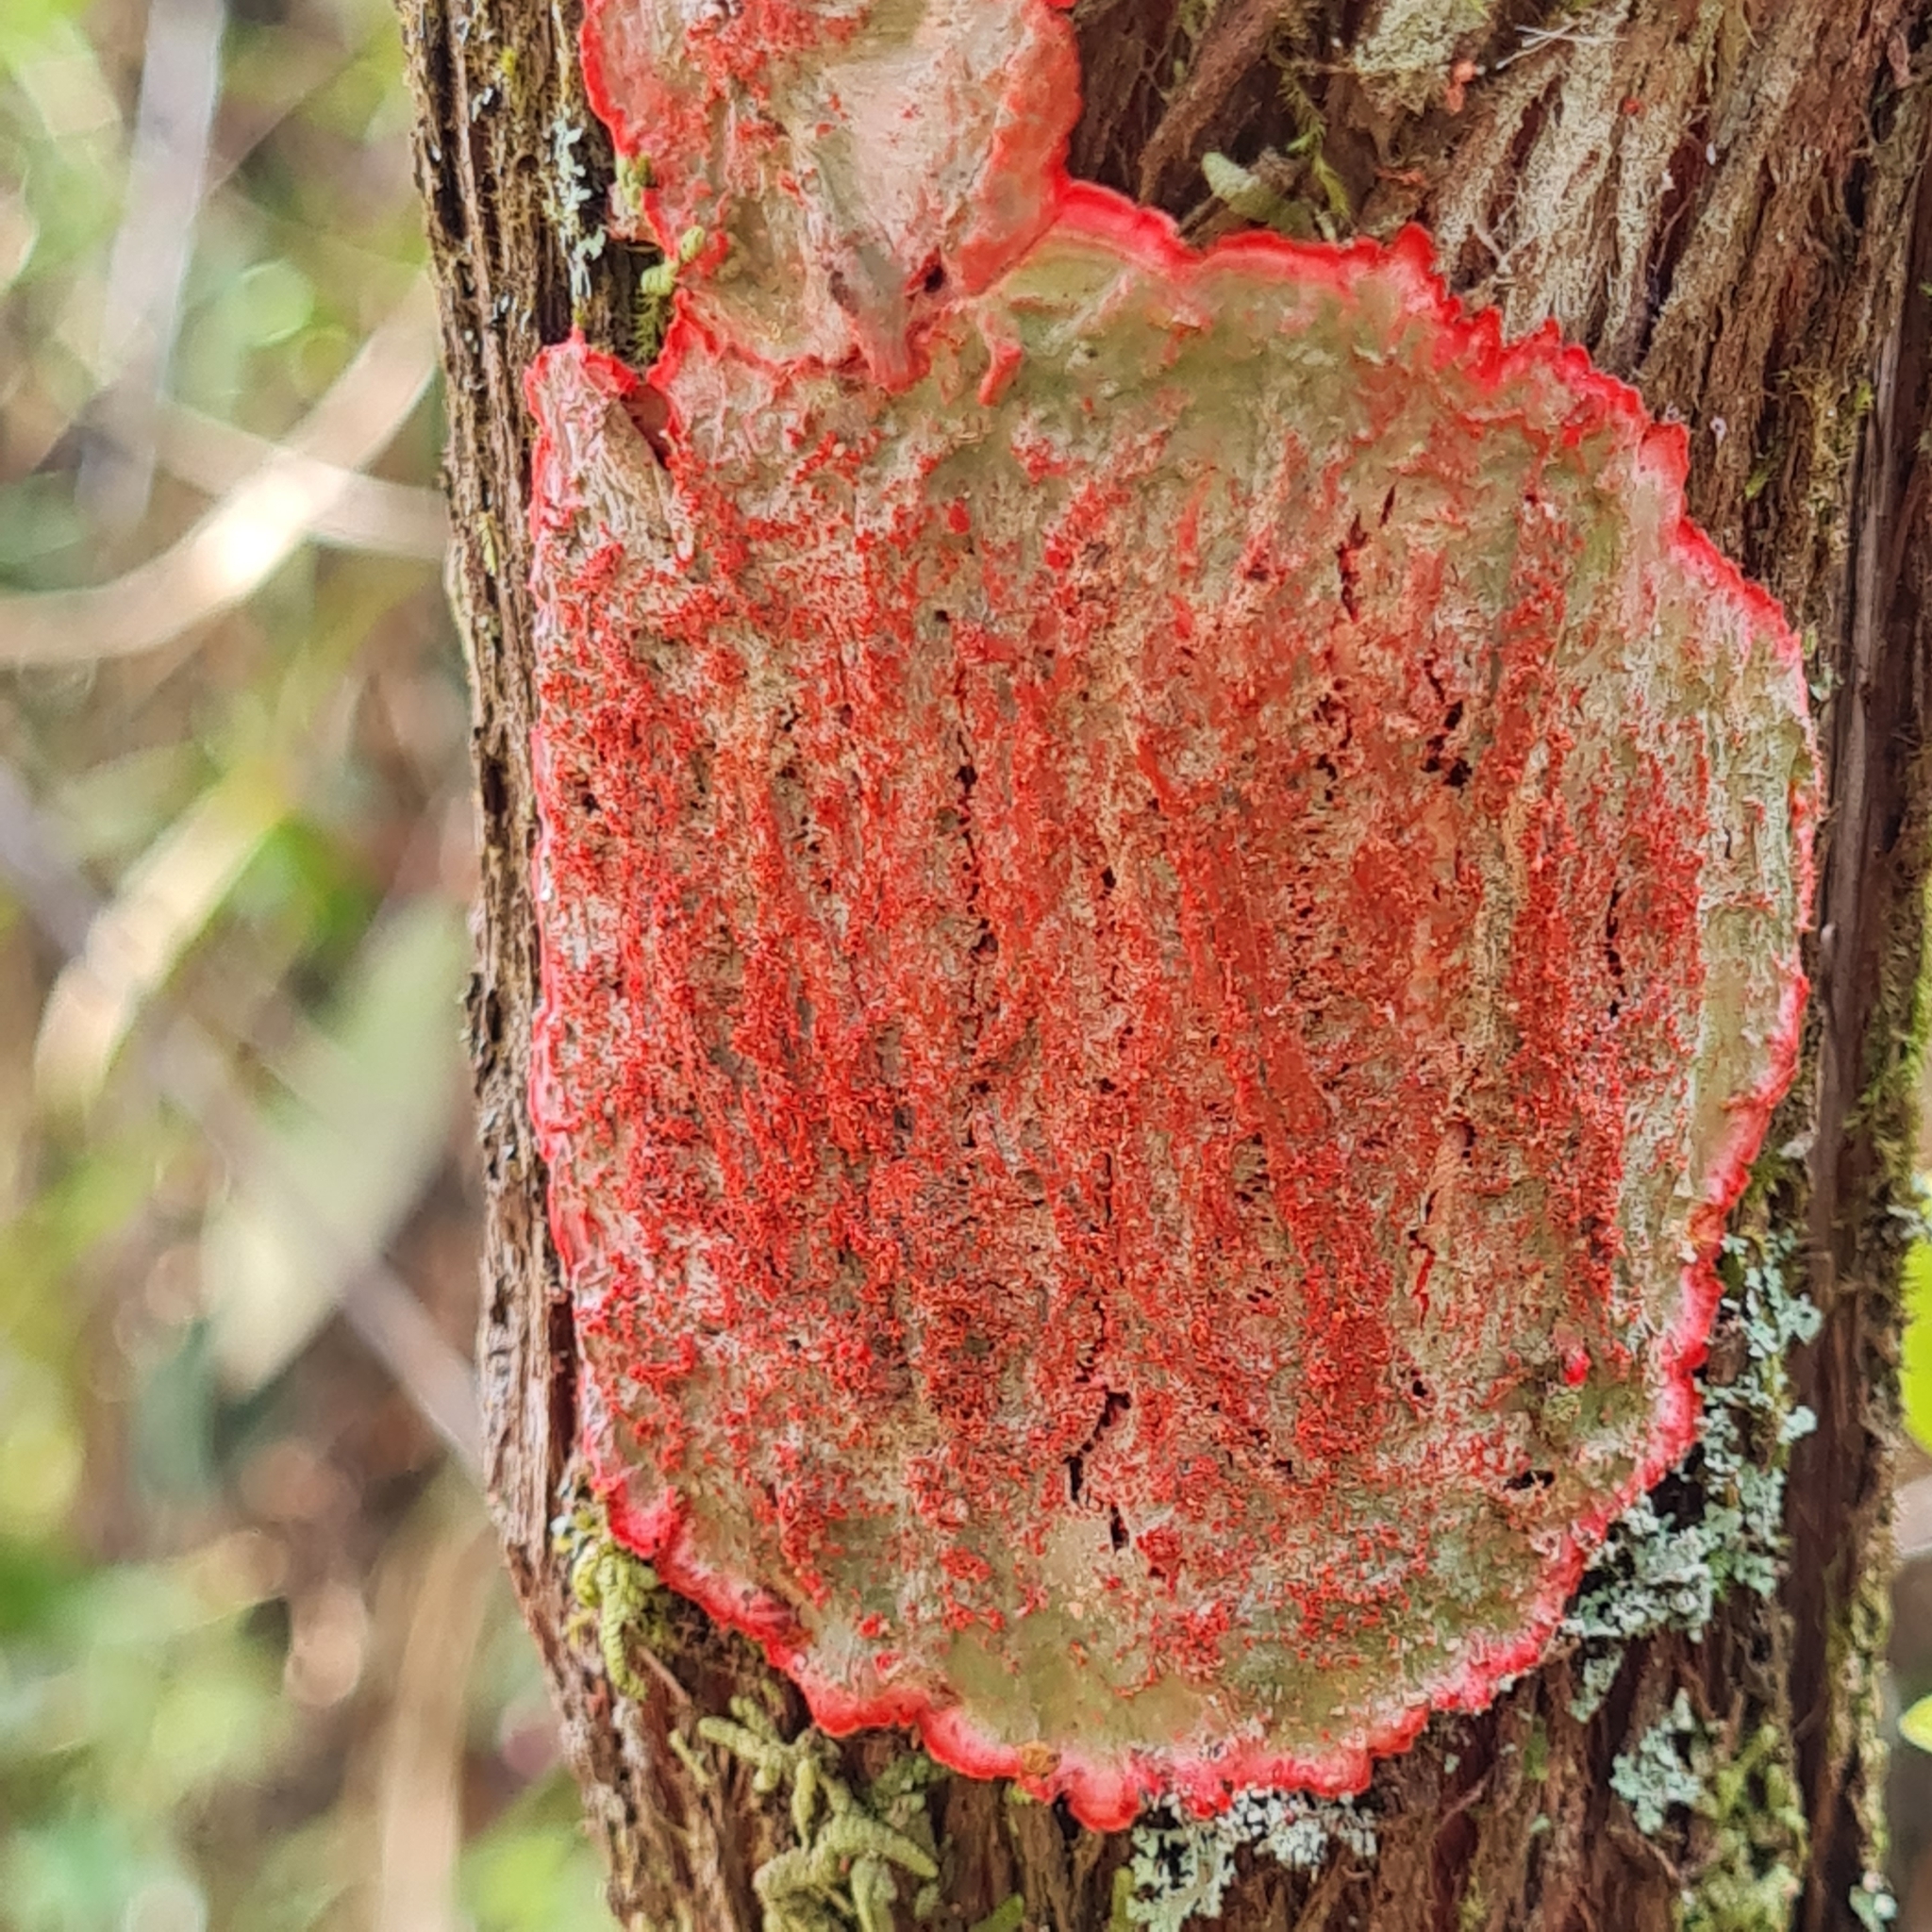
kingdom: Fungi
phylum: Ascomycota
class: Arthoniomycetes
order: Arthoniales
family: Arthoniaceae
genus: Herpothallon
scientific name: Herpothallon rubrocinctum
